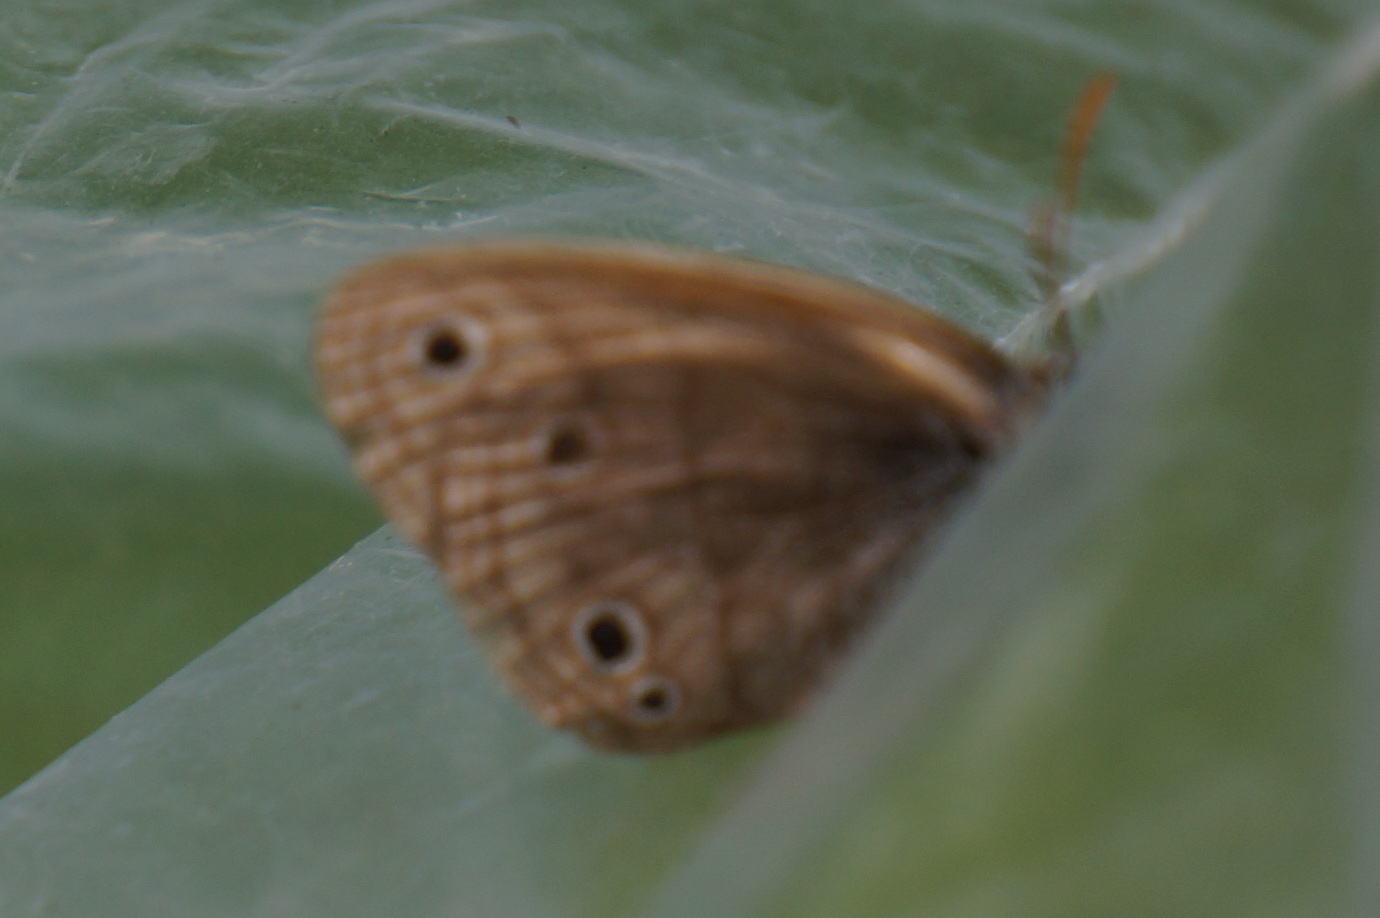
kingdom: Animalia
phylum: Arthropoda
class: Insecta
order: Lepidoptera
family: Nymphalidae
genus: Euptychia
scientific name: Euptychia cymela
